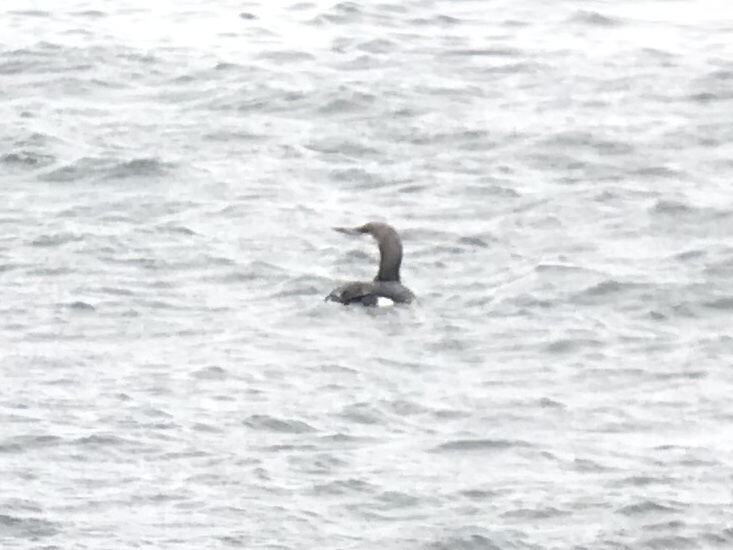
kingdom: Animalia
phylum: Chordata
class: Aves
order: Gaviiformes
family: Gaviidae
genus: Gavia
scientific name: Gavia arctica
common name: Black-throated loon
